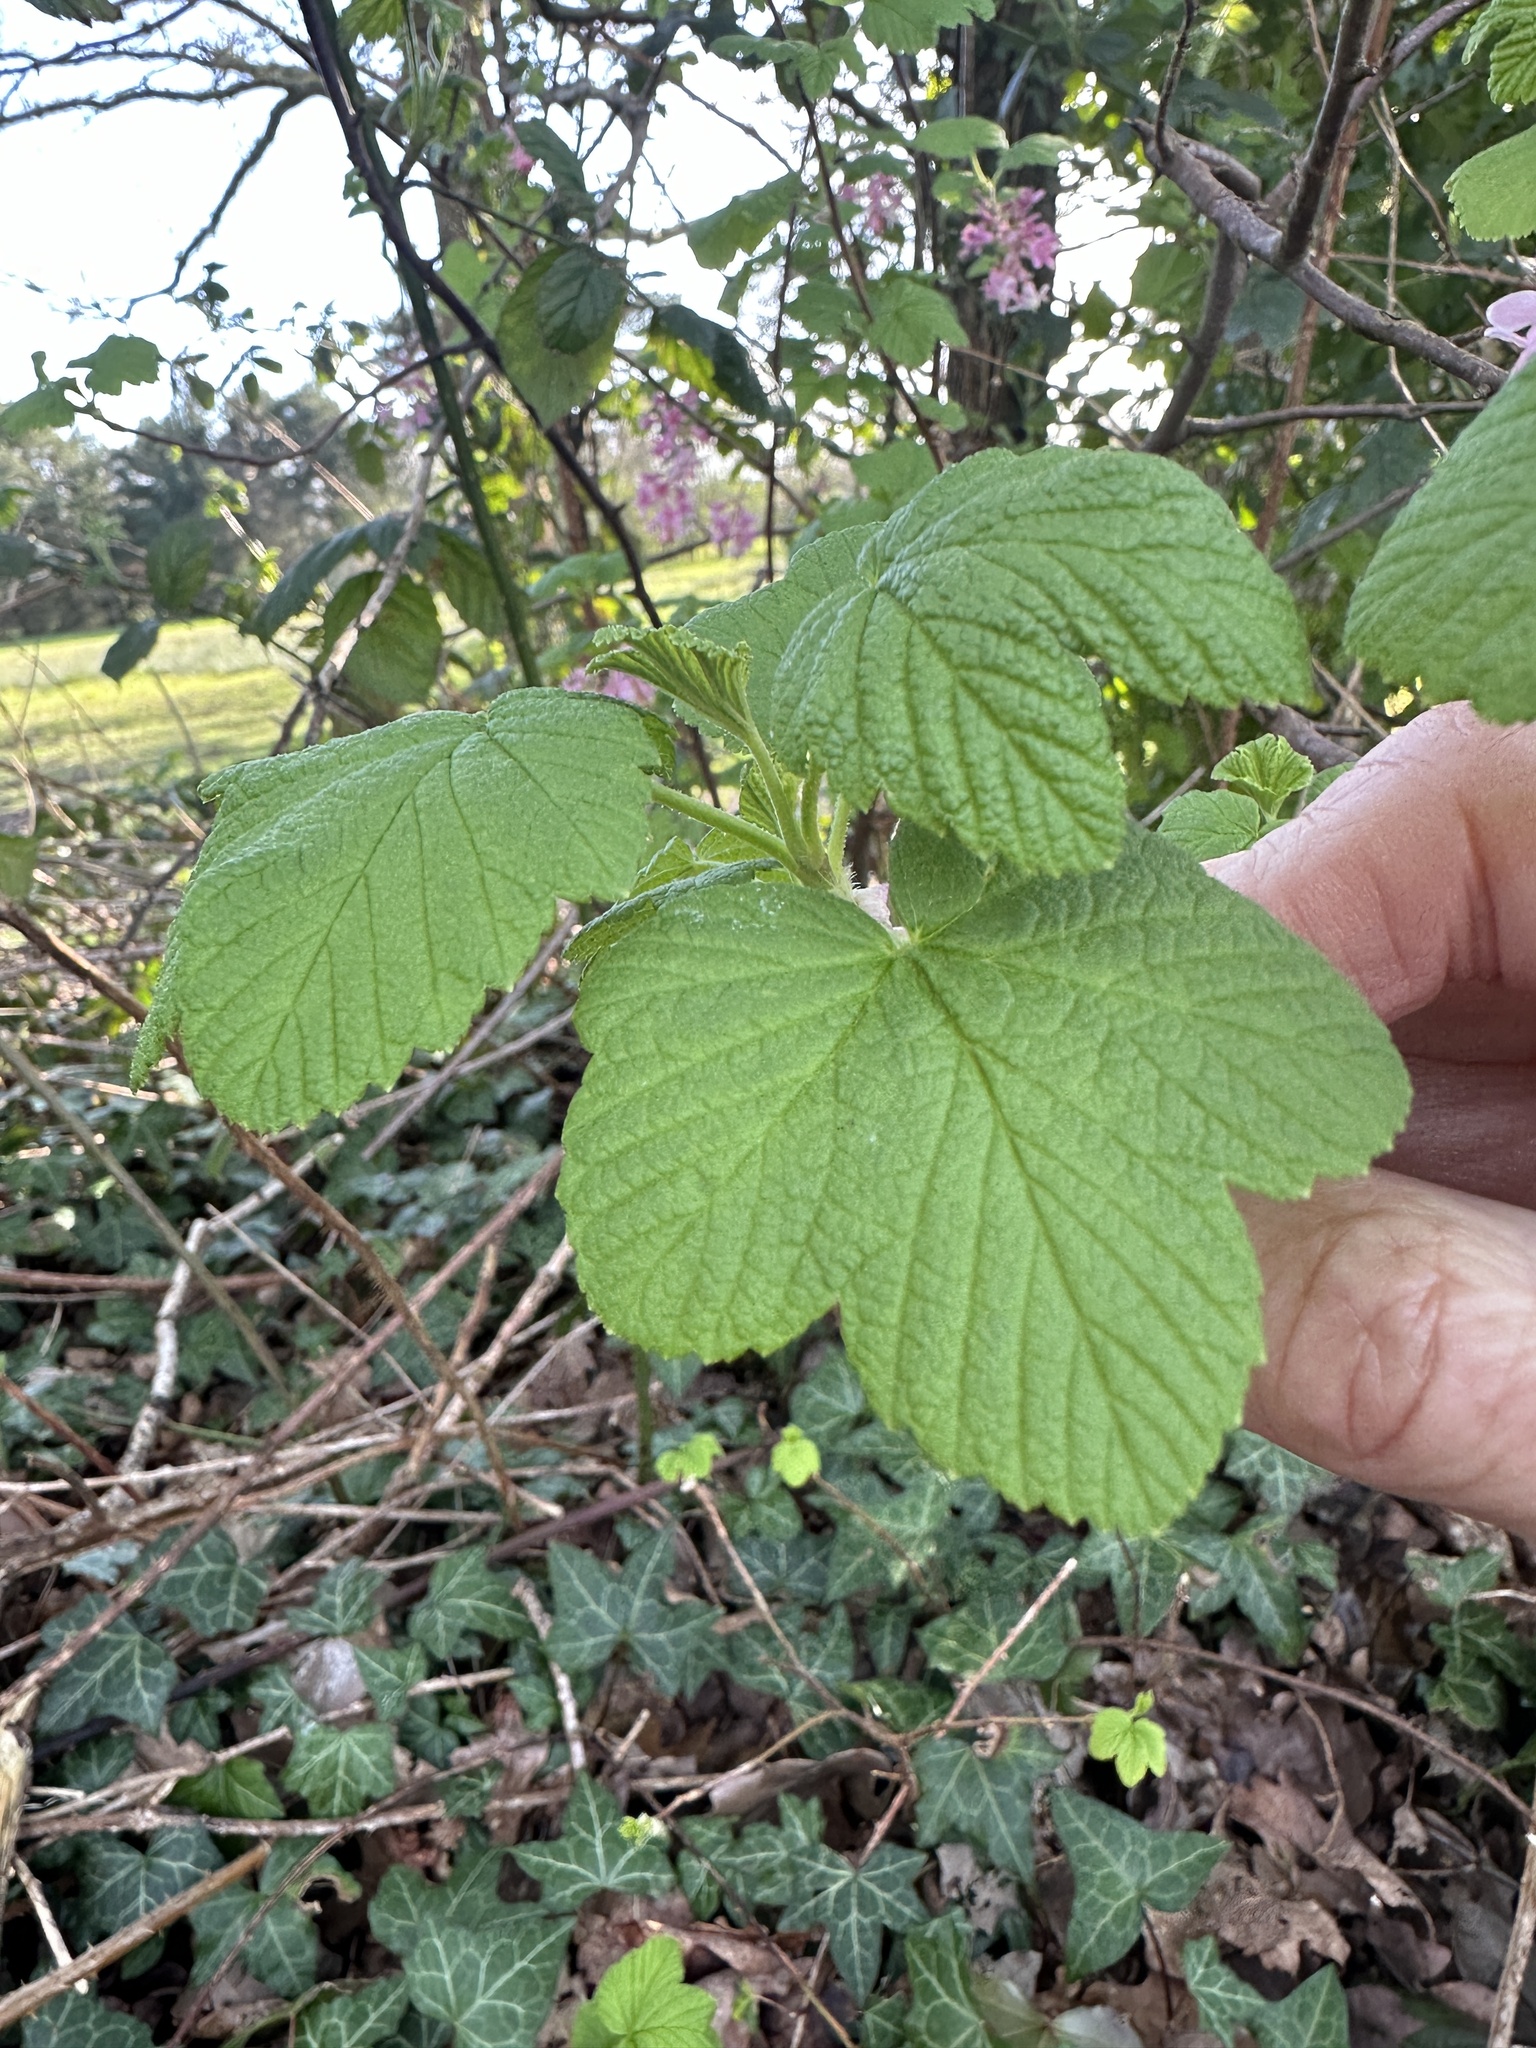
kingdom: Plantae
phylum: Tracheophyta
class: Magnoliopsida
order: Saxifragales
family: Grossulariaceae
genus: Ribes
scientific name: Ribes sanguineum
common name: Flowering currant
